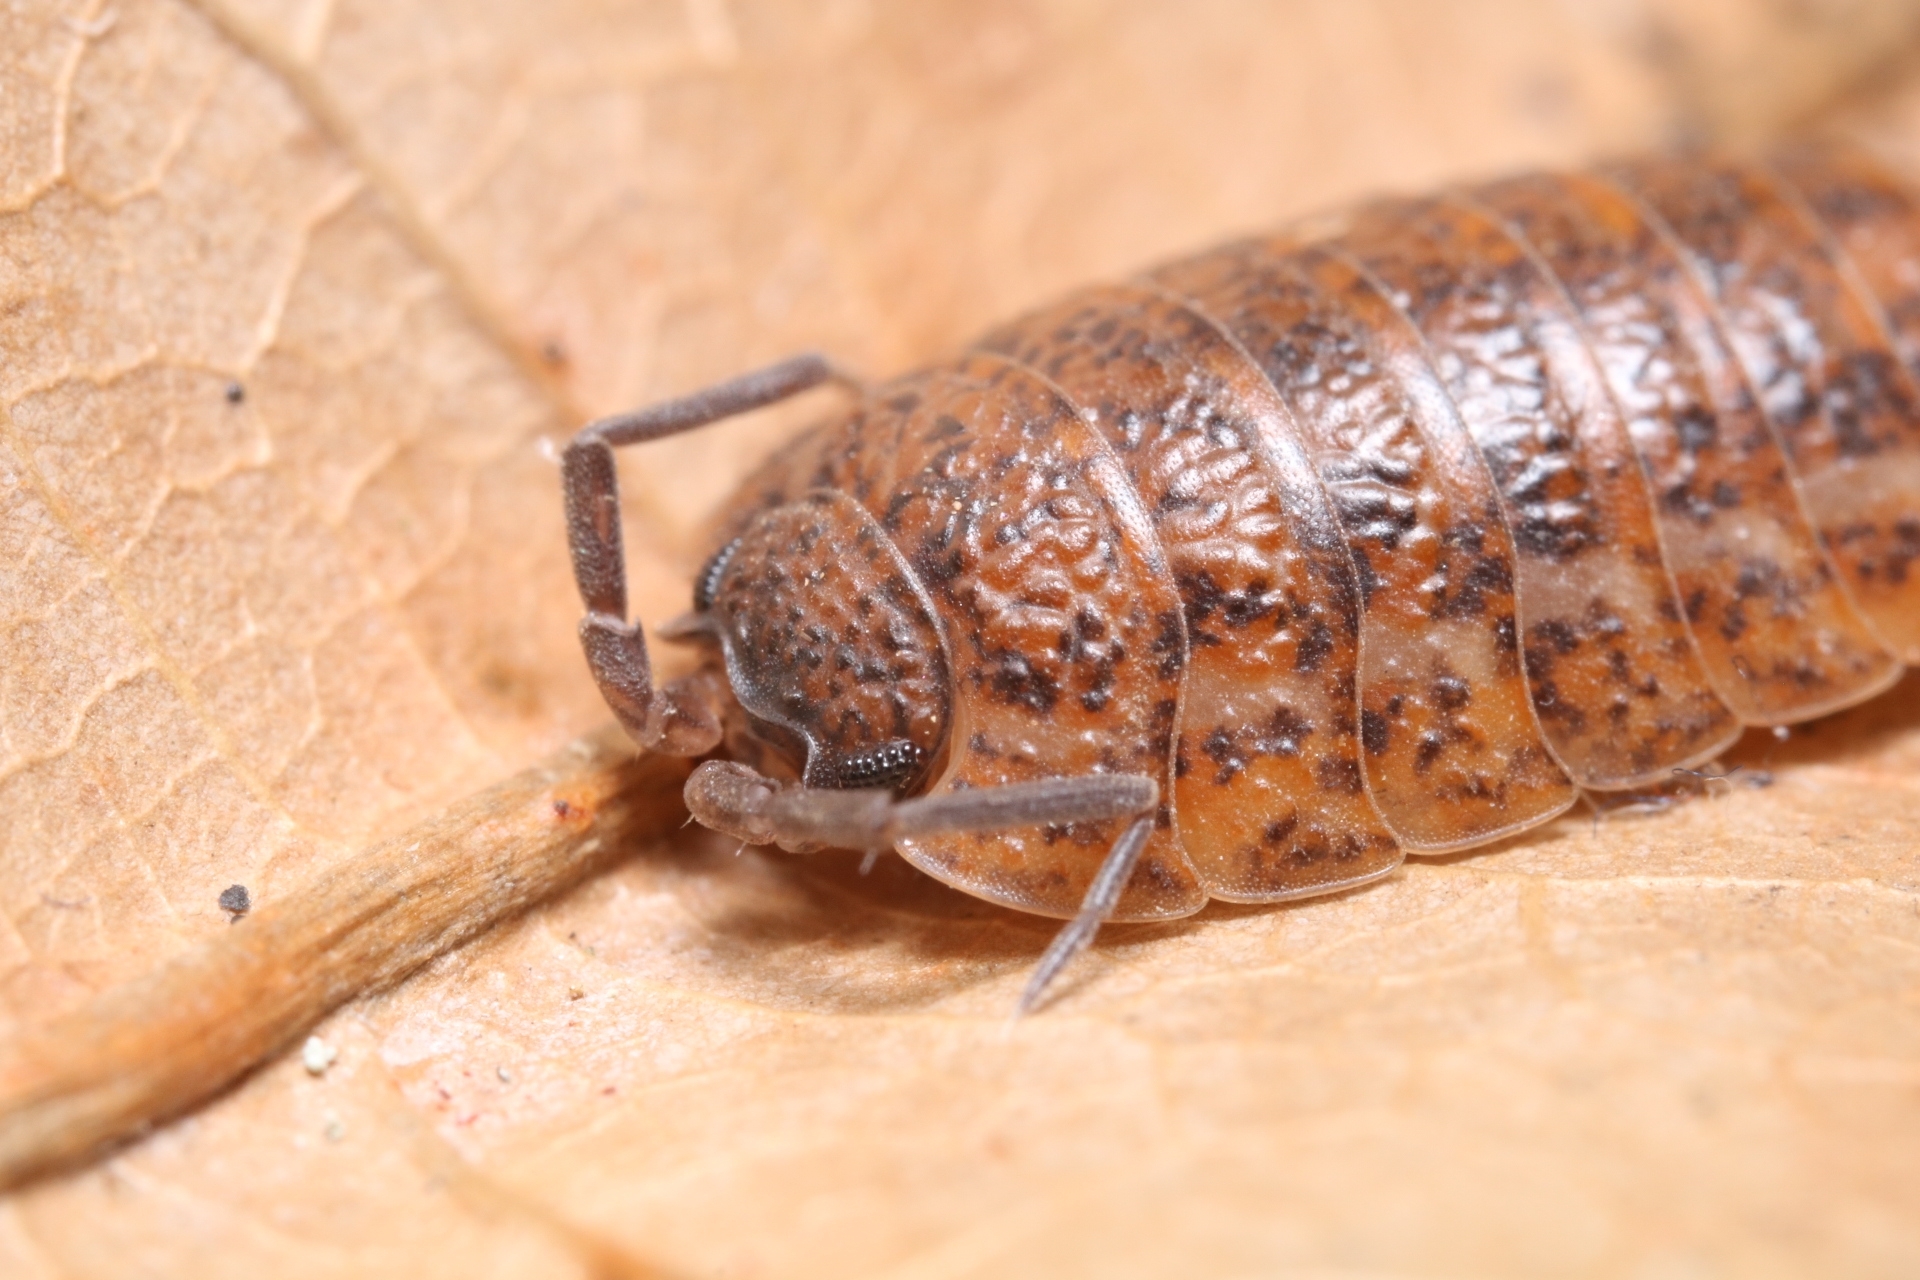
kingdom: Animalia
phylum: Arthropoda
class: Malacostraca
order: Isopoda
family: Trachelipodidae
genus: Trachelipus
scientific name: Trachelipus rathkii
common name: Isopod
